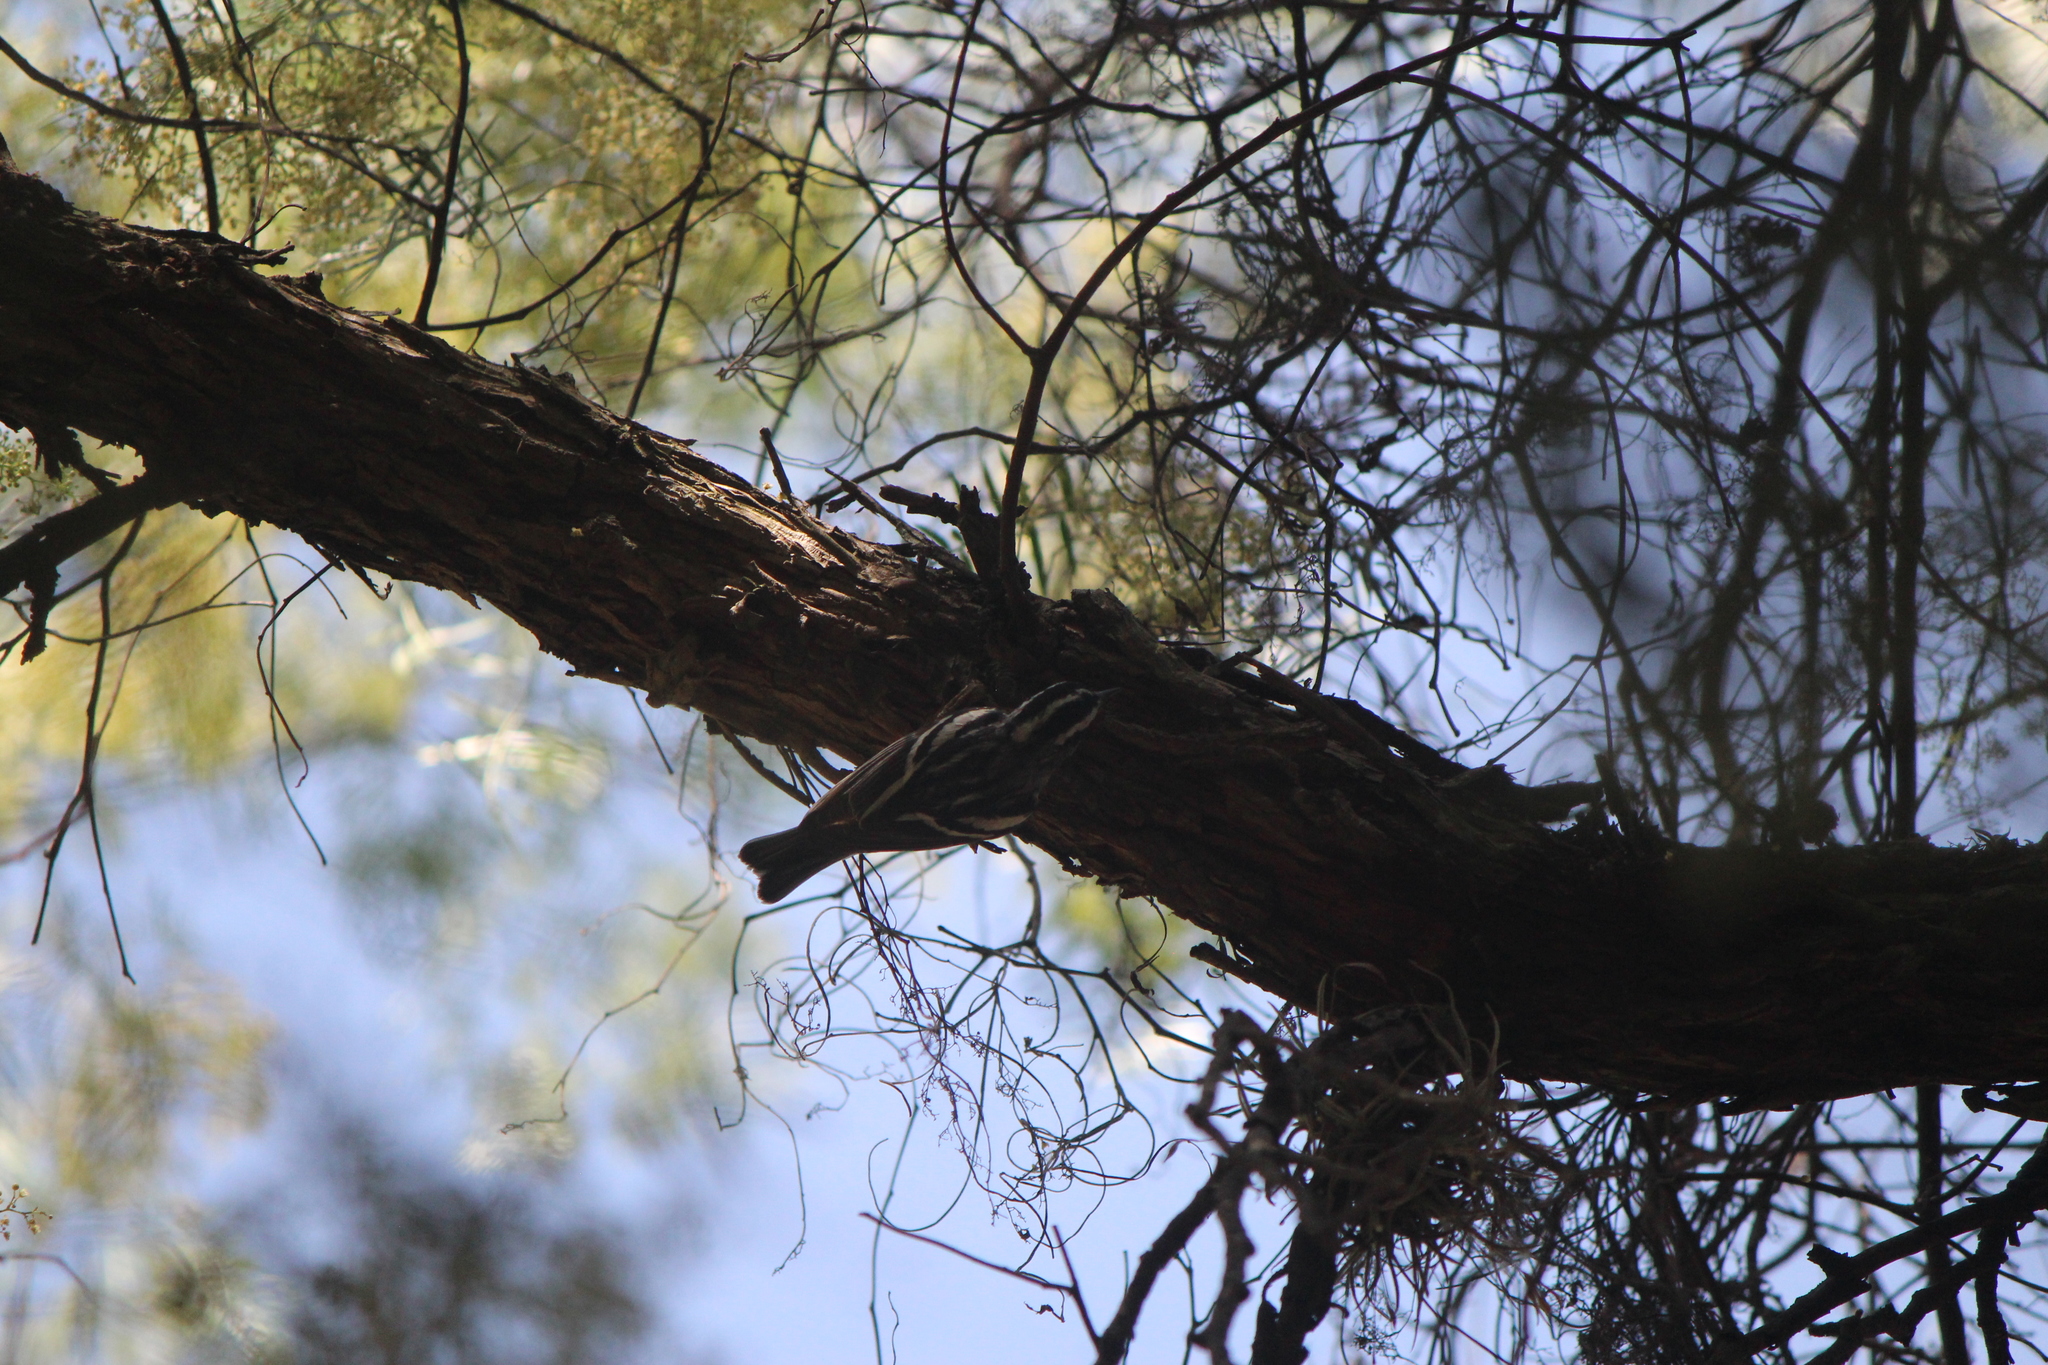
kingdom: Animalia
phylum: Chordata
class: Aves
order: Passeriformes
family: Parulidae
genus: Mniotilta
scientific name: Mniotilta varia
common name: Black-and-white warbler
